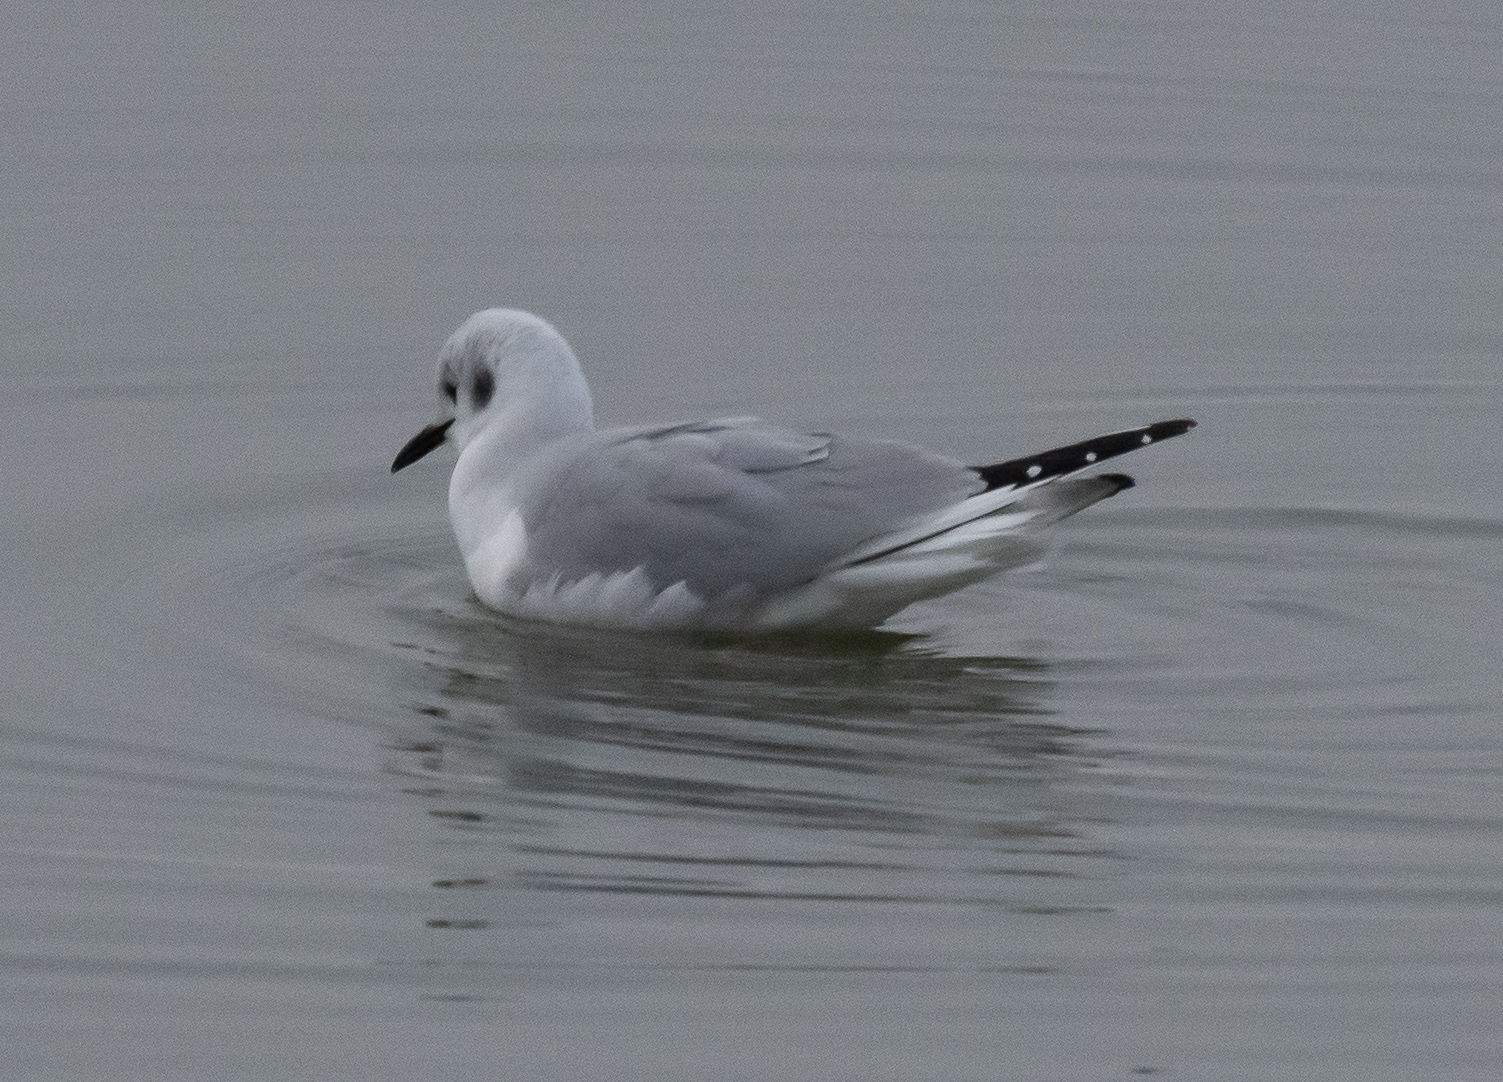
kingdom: Animalia
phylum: Chordata
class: Aves
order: Charadriiformes
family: Laridae
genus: Chroicocephalus
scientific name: Chroicocephalus philadelphia
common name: Bonaparte's gull
